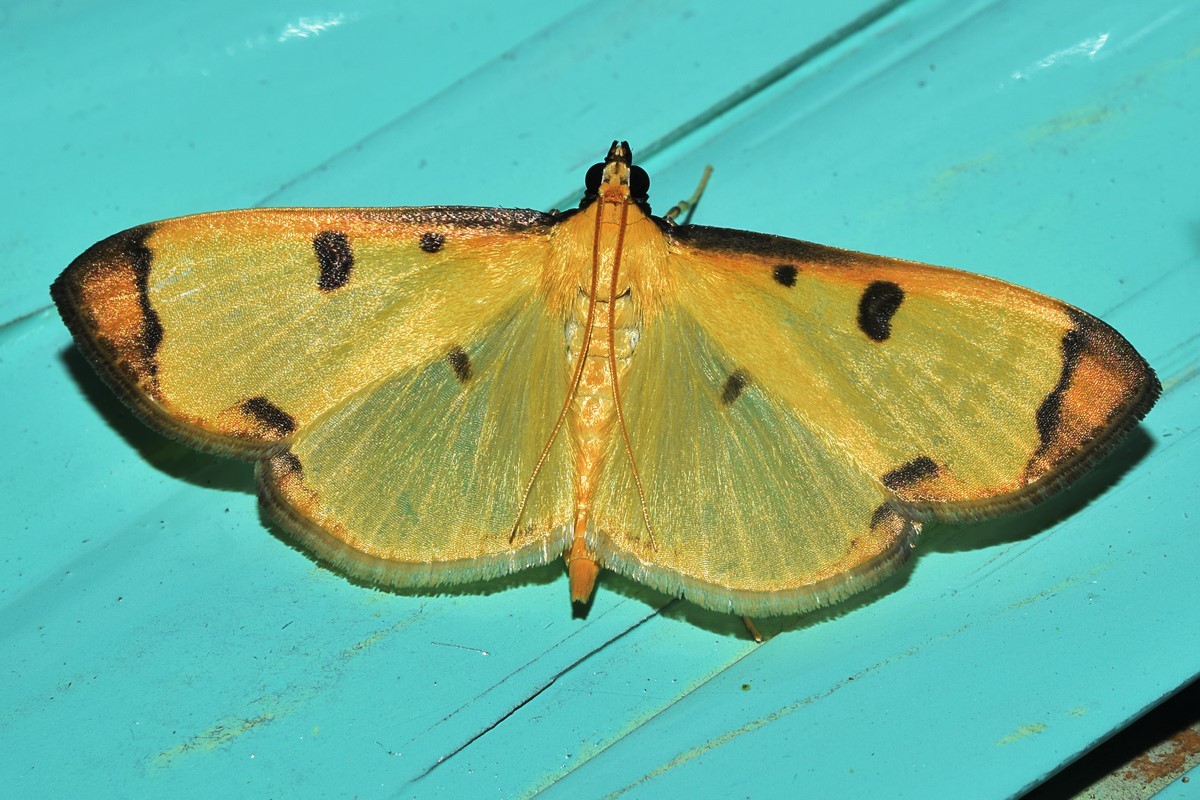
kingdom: Animalia
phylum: Arthropoda
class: Insecta
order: Lepidoptera
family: Pyralidae
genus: Uncobotyodes
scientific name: Uncobotyodes
